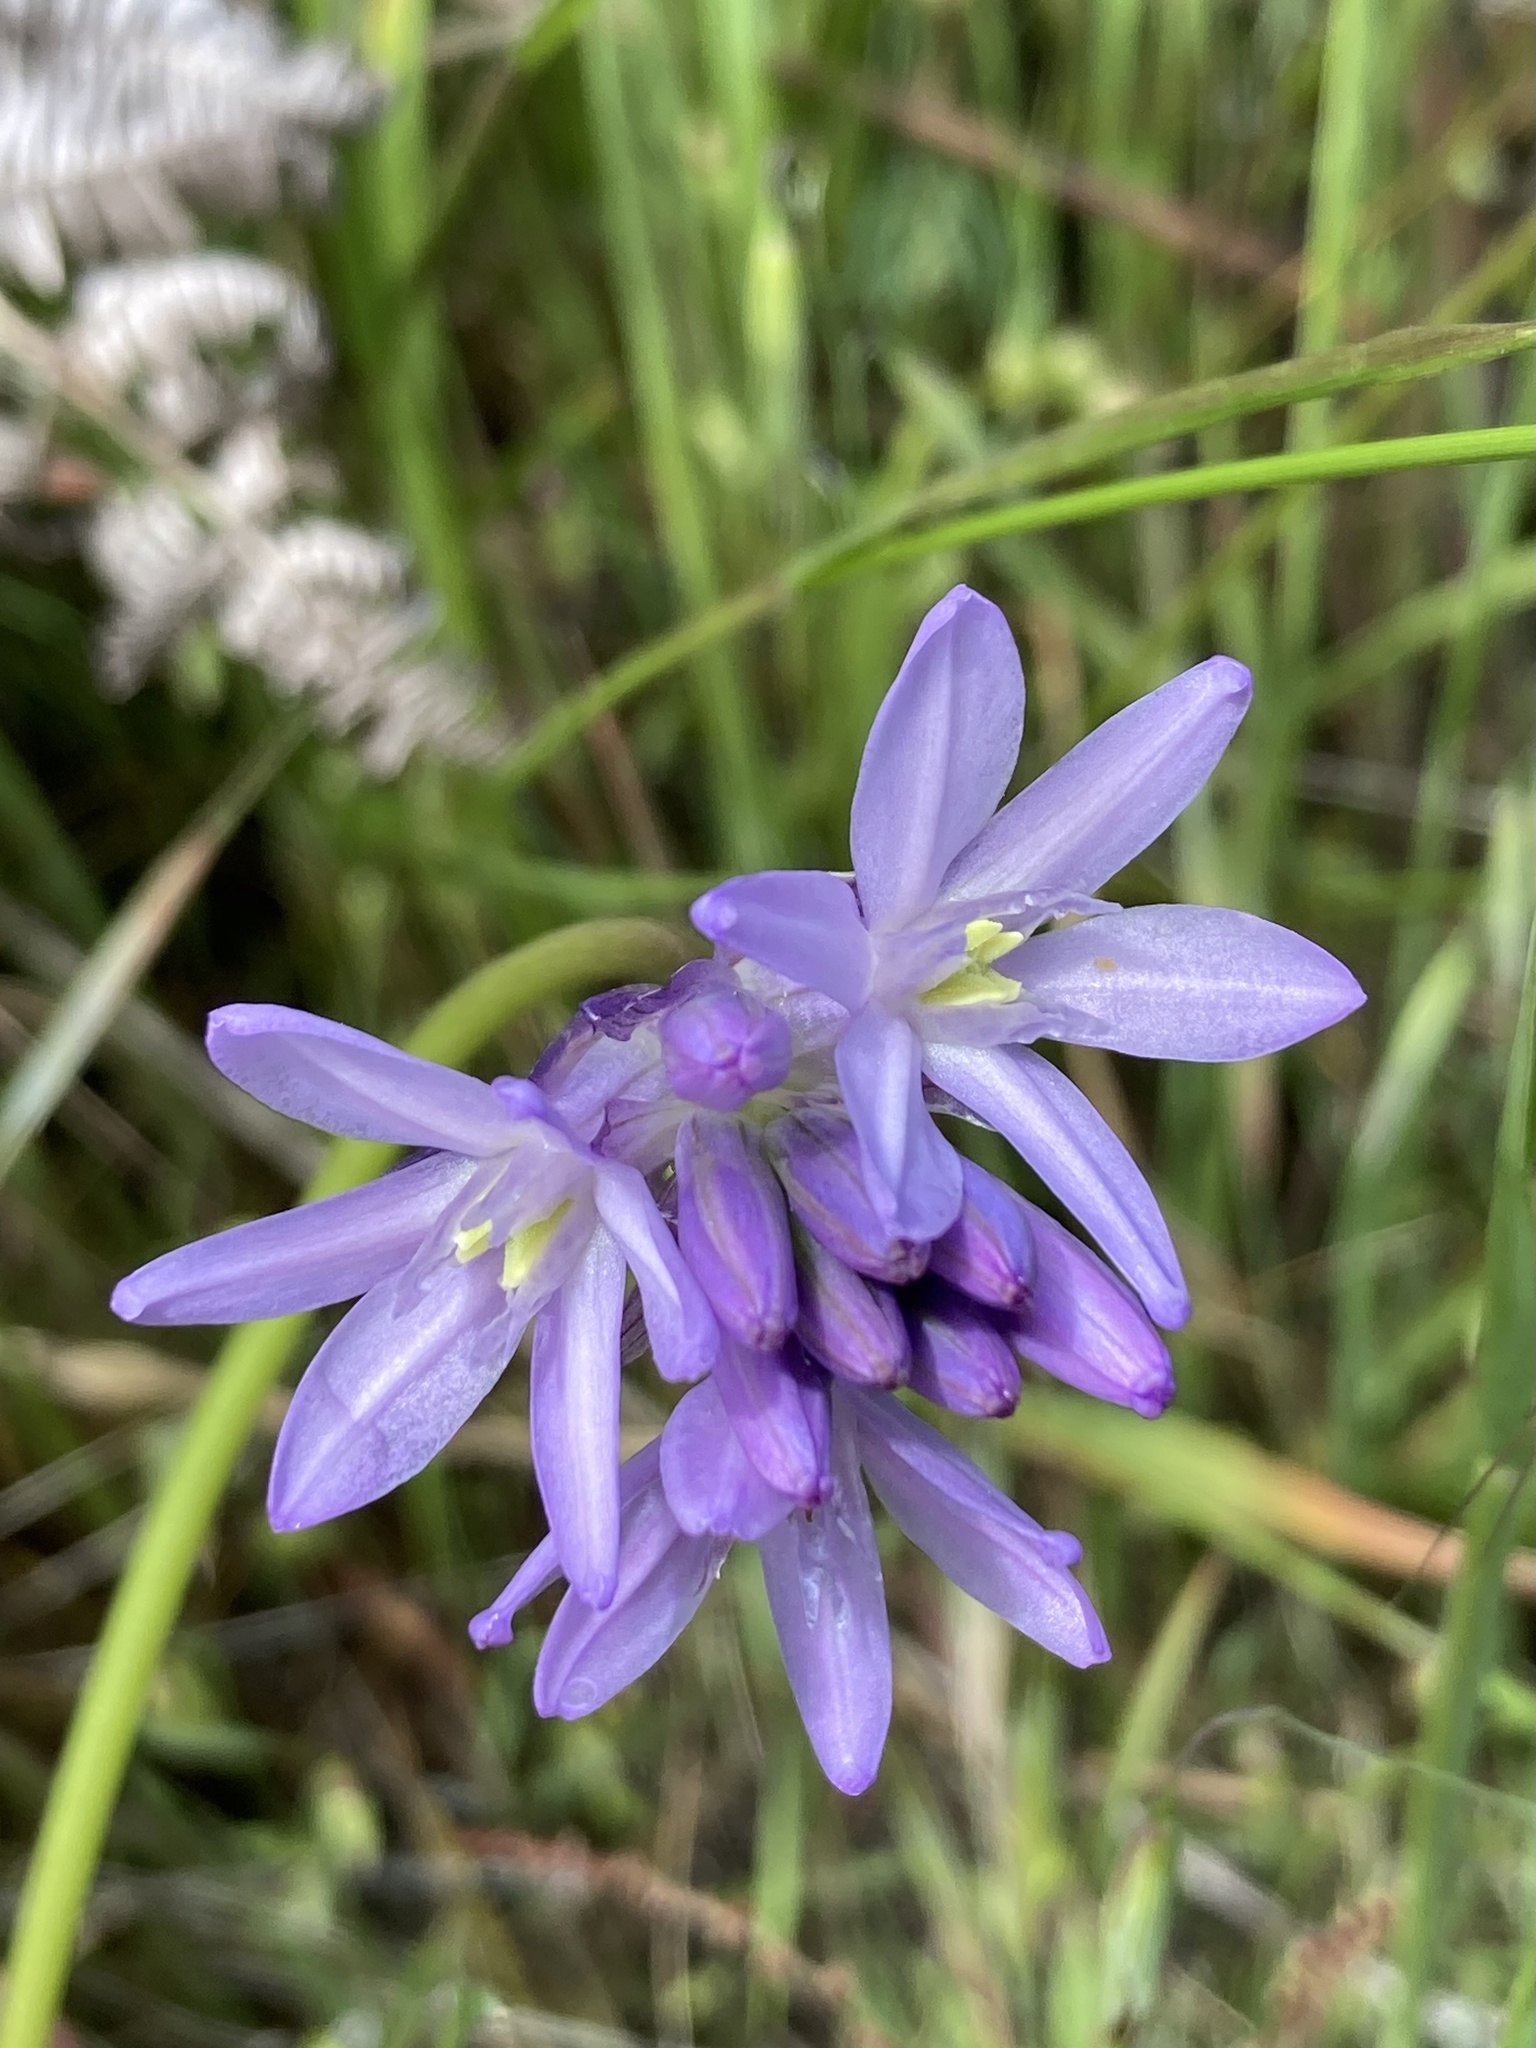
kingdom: Plantae
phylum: Tracheophyta
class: Liliopsida
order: Asparagales
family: Asparagaceae
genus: Dichelostemma
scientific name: Dichelostemma congestum
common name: Fork-tooth ookow
